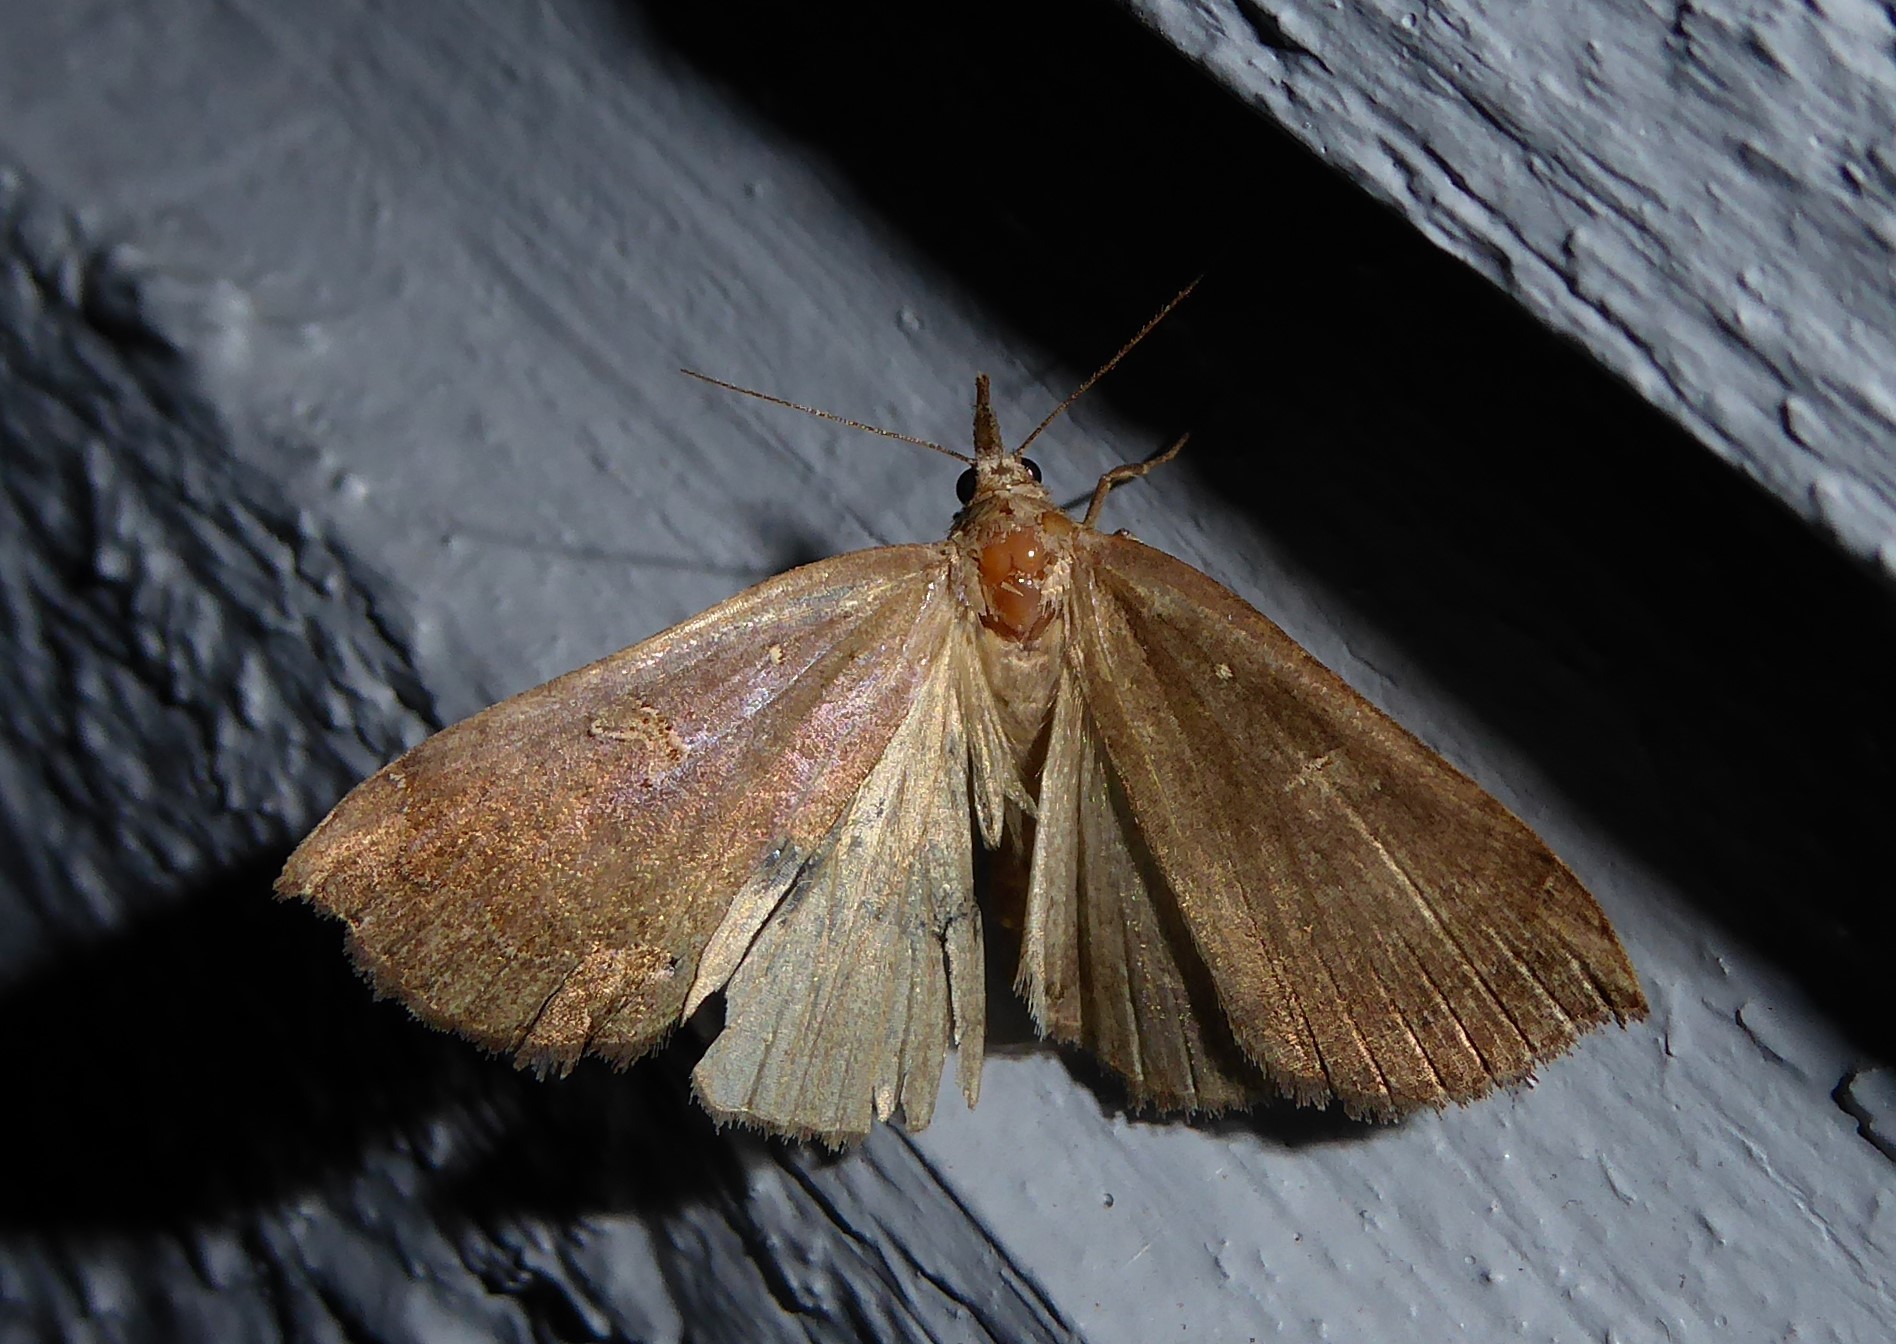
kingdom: Animalia
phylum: Arthropoda
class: Insecta
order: Lepidoptera
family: Erebidae
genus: Rhapsa
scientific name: Rhapsa scotosialis
